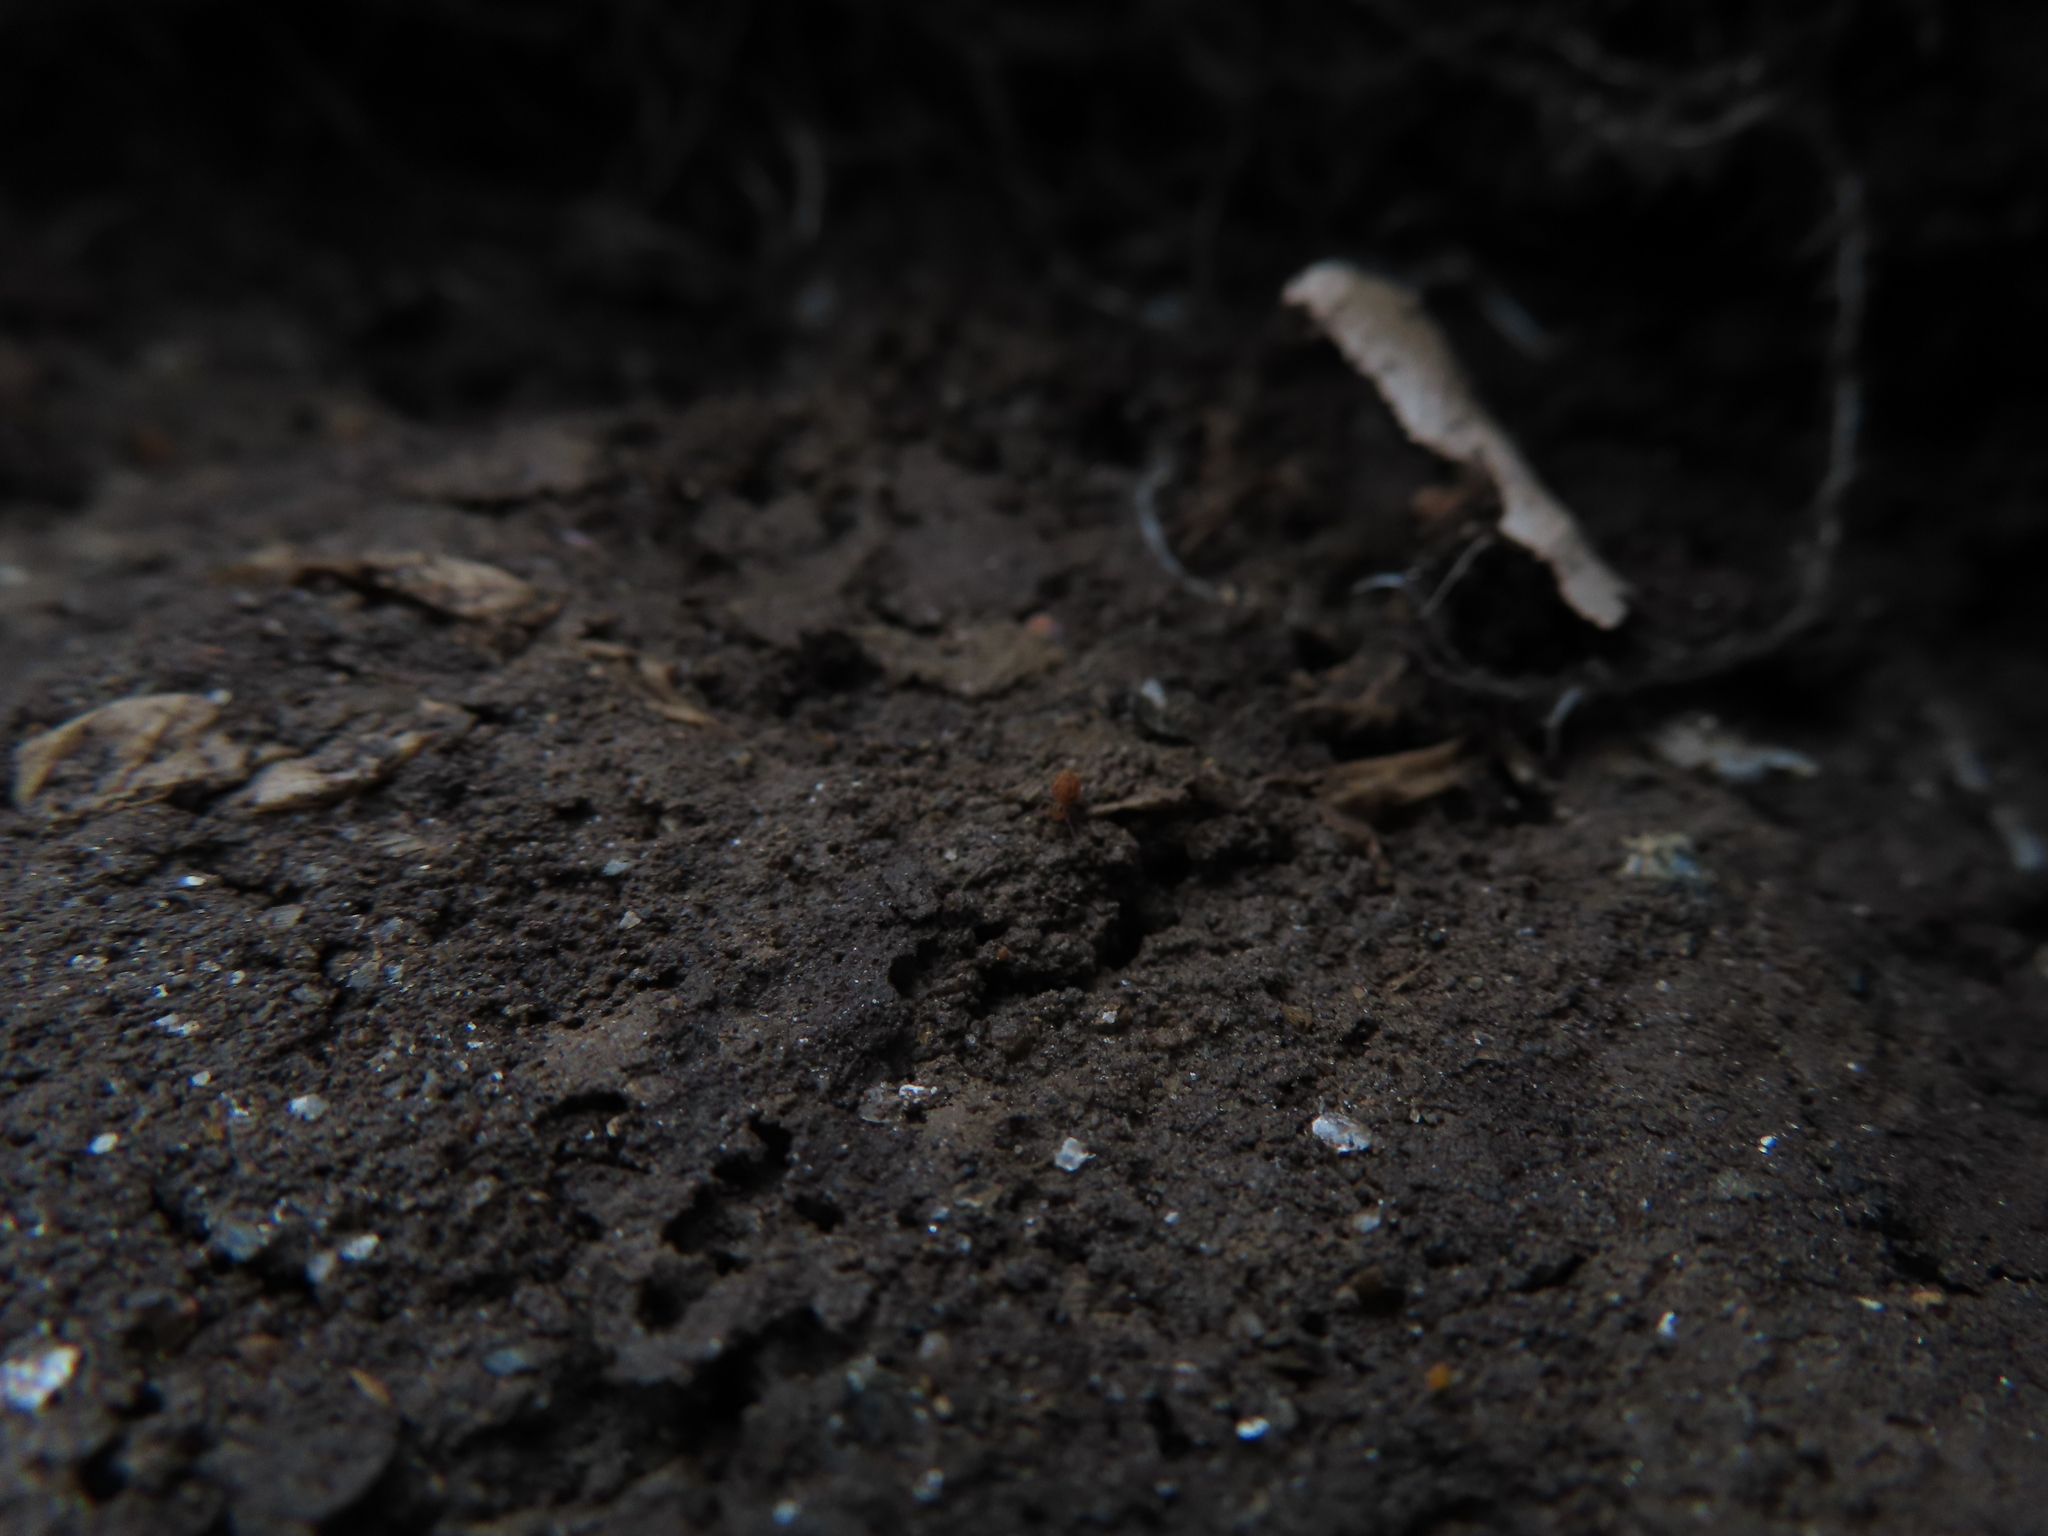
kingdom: Animalia
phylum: Arthropoda
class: Collembola
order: Symphypleona
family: Dicyrtomidae
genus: Dicyrtomina
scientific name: Dicyrtomina minuta
